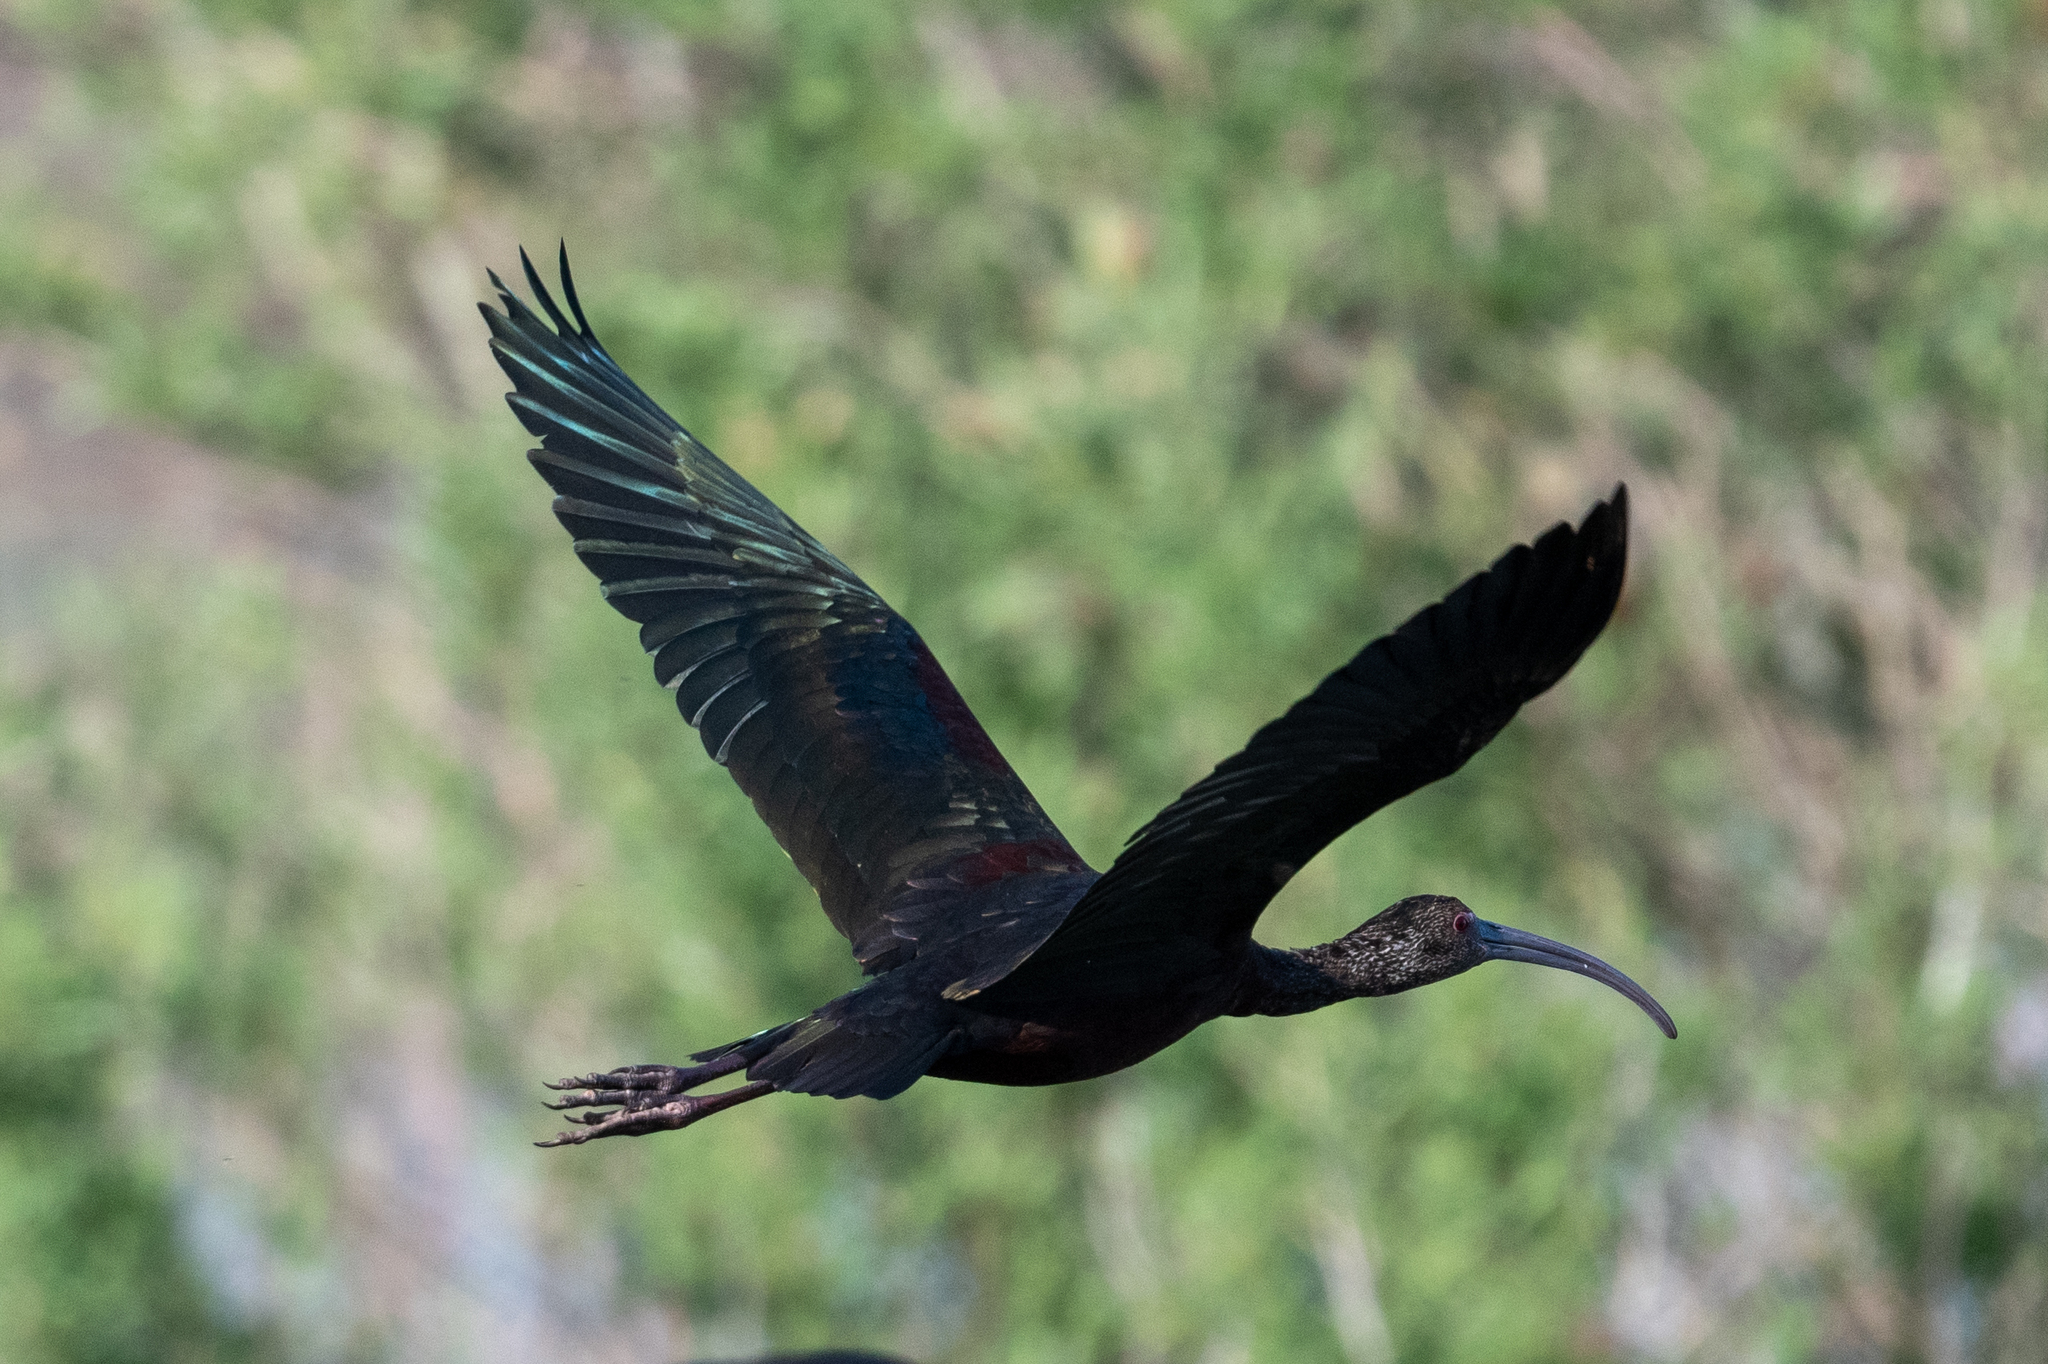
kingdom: Animalia
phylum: Chordata
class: Aves
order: Pelecaniformes
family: Threskiornithidae
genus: Plegadis
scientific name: Plegadis chihi
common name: White-faced ibis
